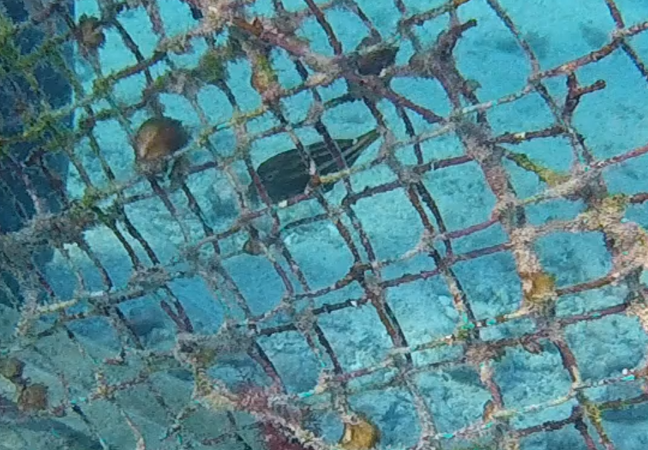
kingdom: Animalia
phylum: Chordata
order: Tetraodontiformes
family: Monacanthidae
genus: Cantherhines
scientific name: Cantherhines pullus
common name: Orangespotted filefish
